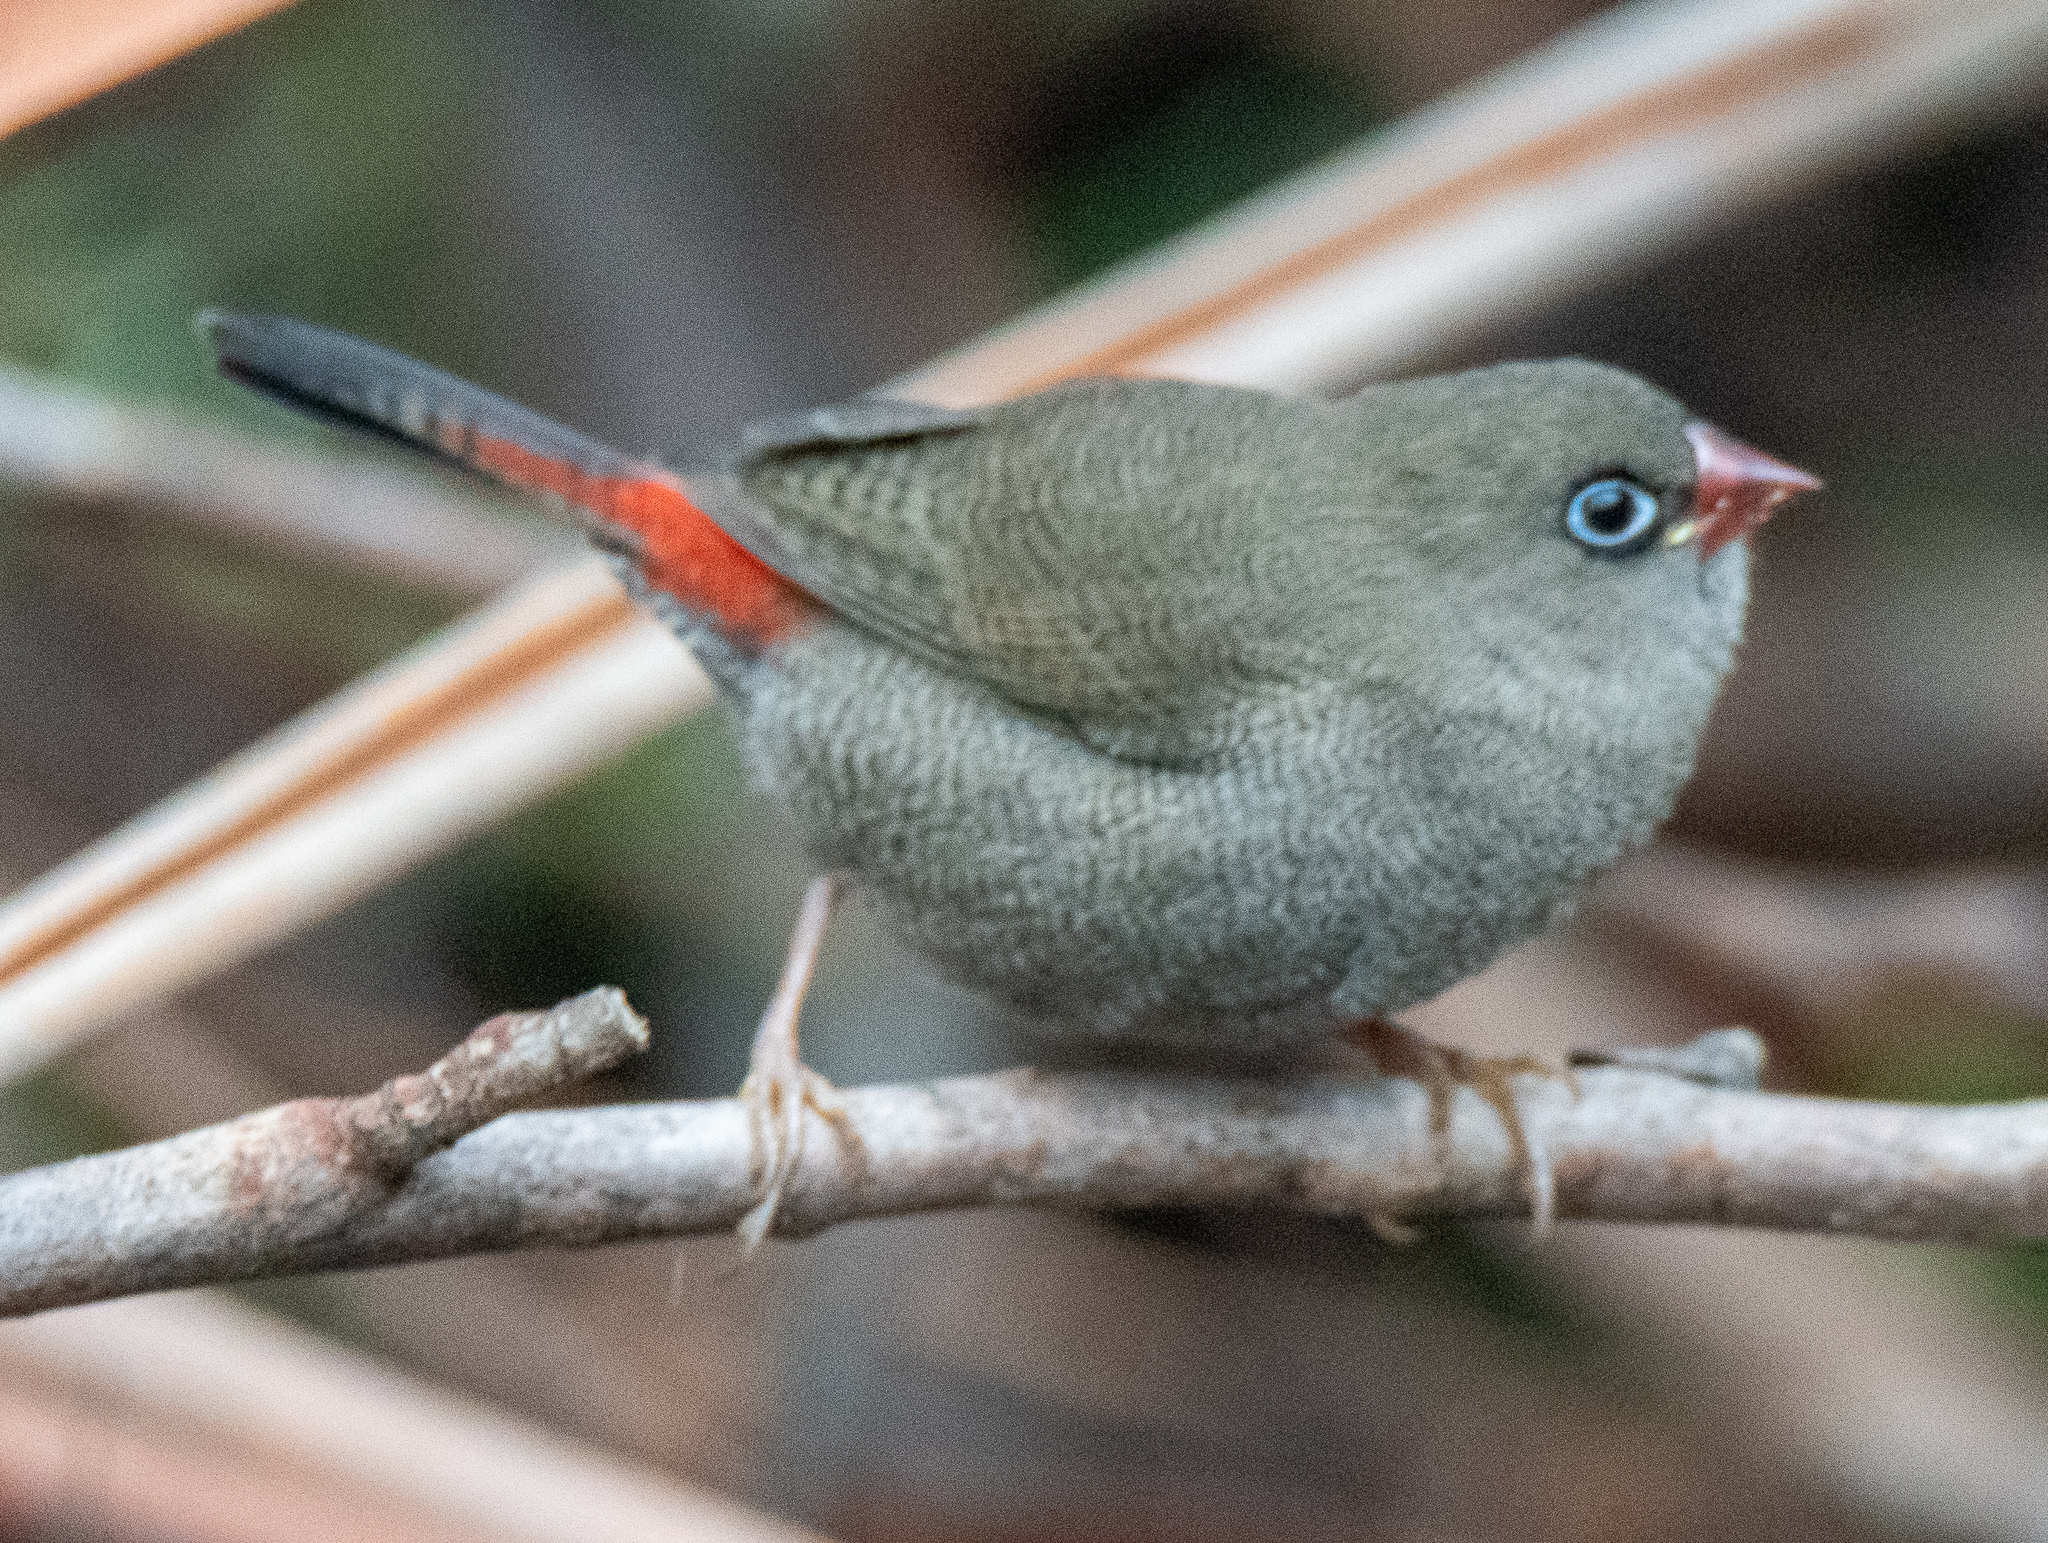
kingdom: Animalia
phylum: Chordata
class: Aves
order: Passeriformes
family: Estrildidae
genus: Stagonopleura
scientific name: Stagonopleura bella
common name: Beautiful firetail
